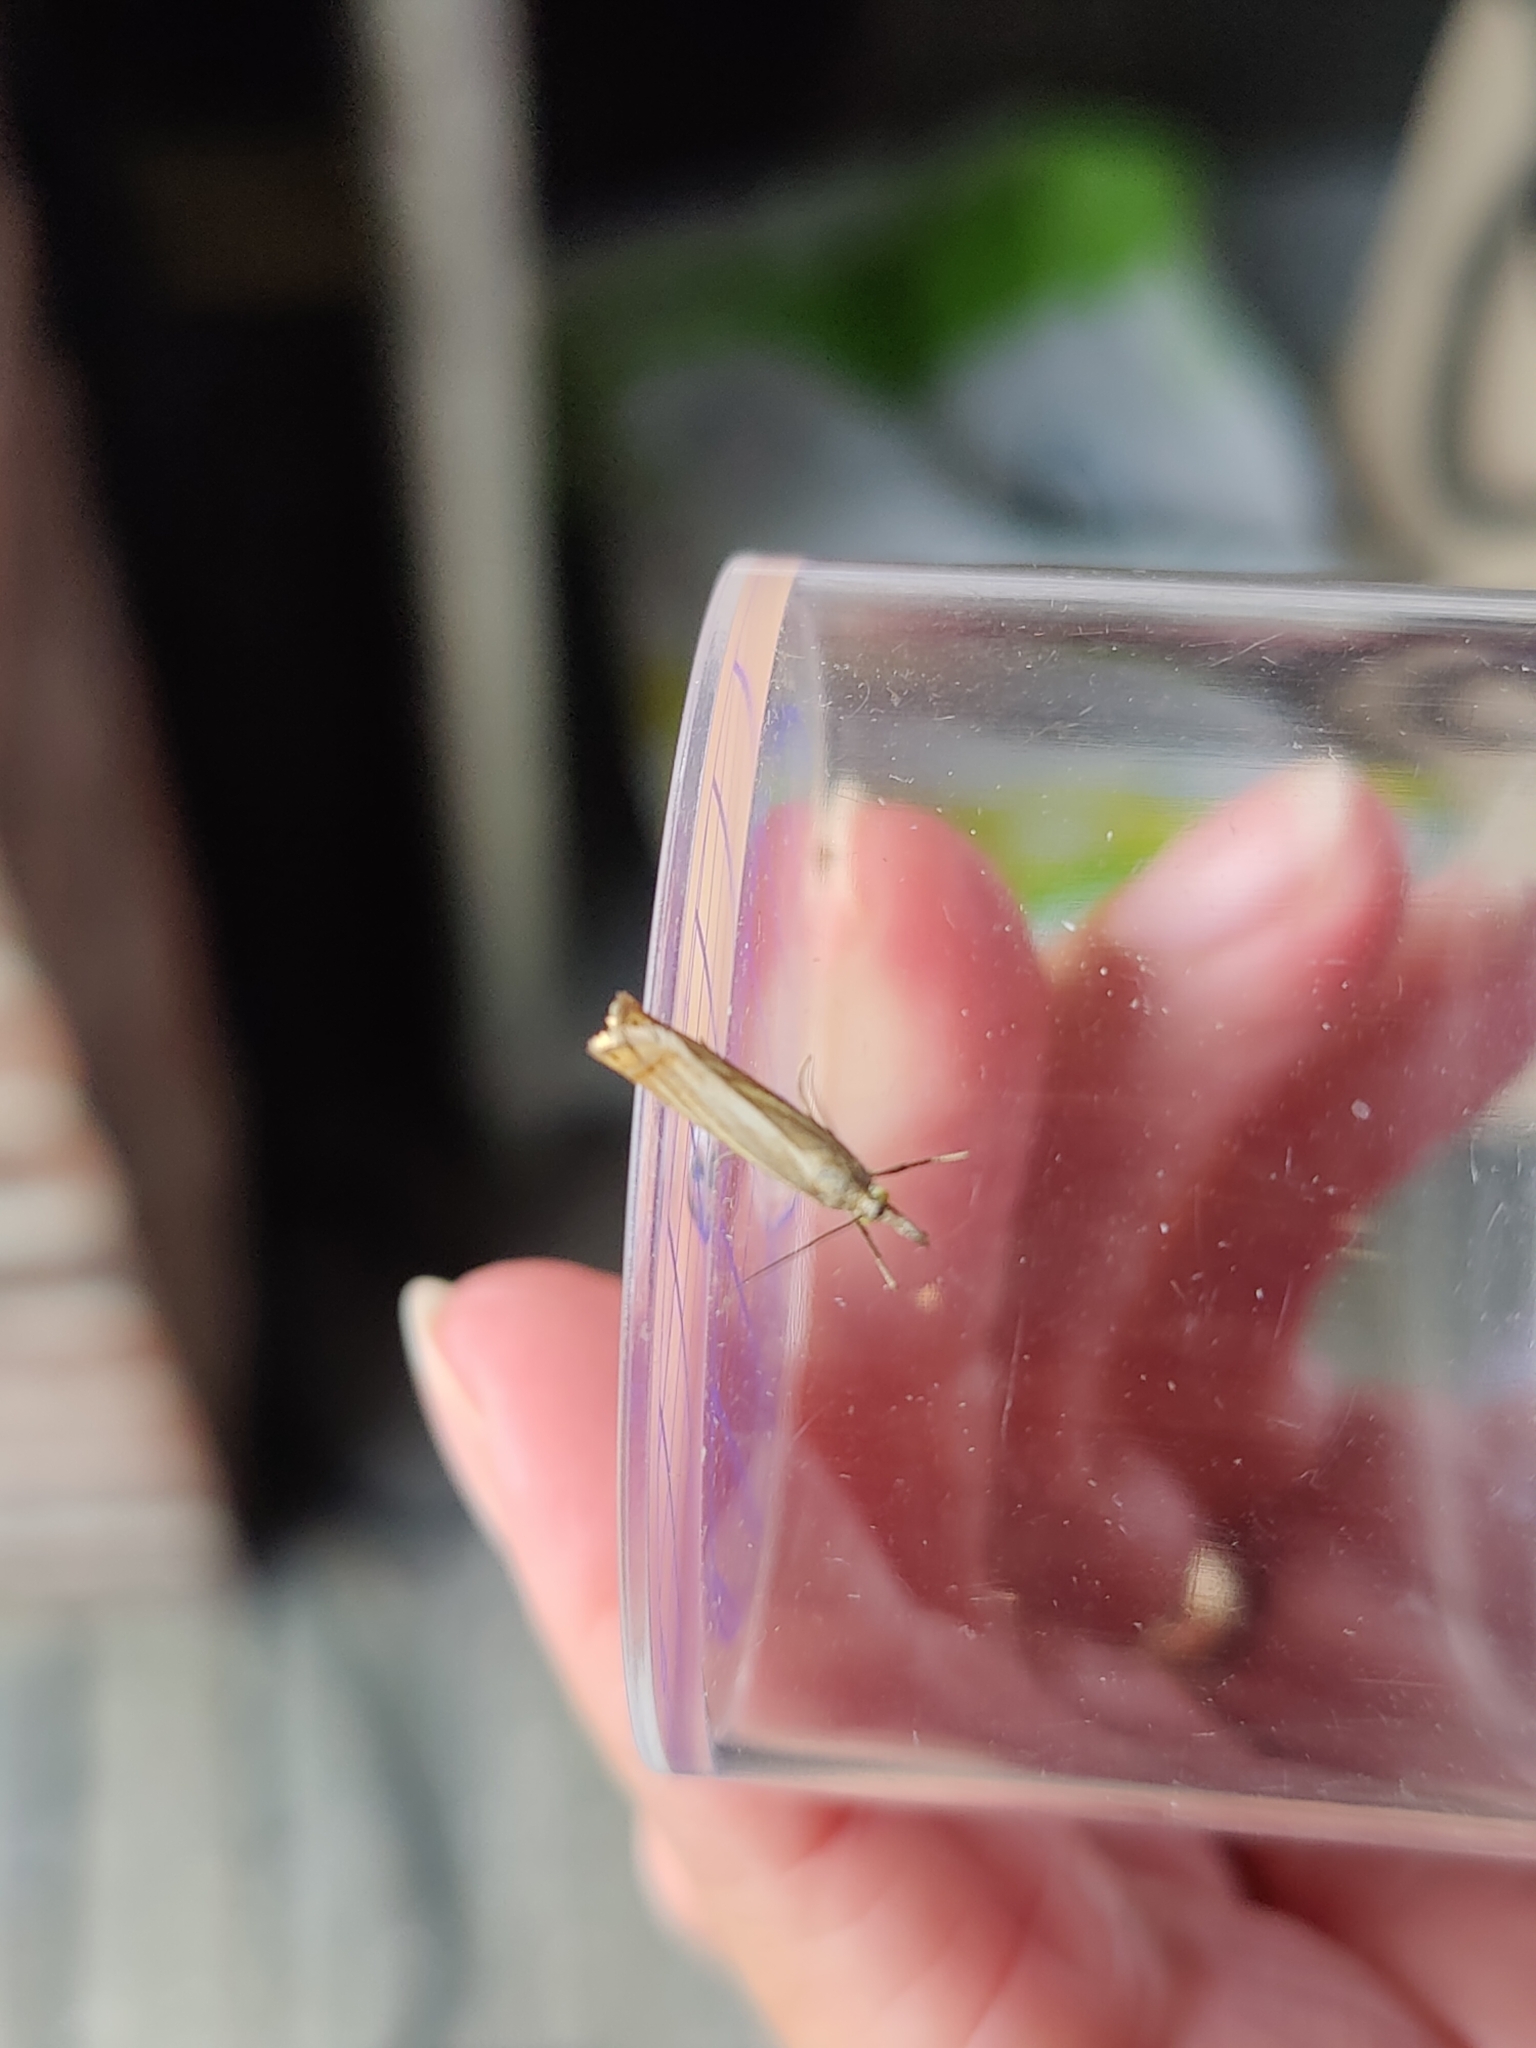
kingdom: Animalia
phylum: Arthropoda
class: Insecta
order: Lepidoptera
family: Crambidae
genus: Chrysoteuchia
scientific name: Chrysoteuchia culmella
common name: Garden grass-veneer
